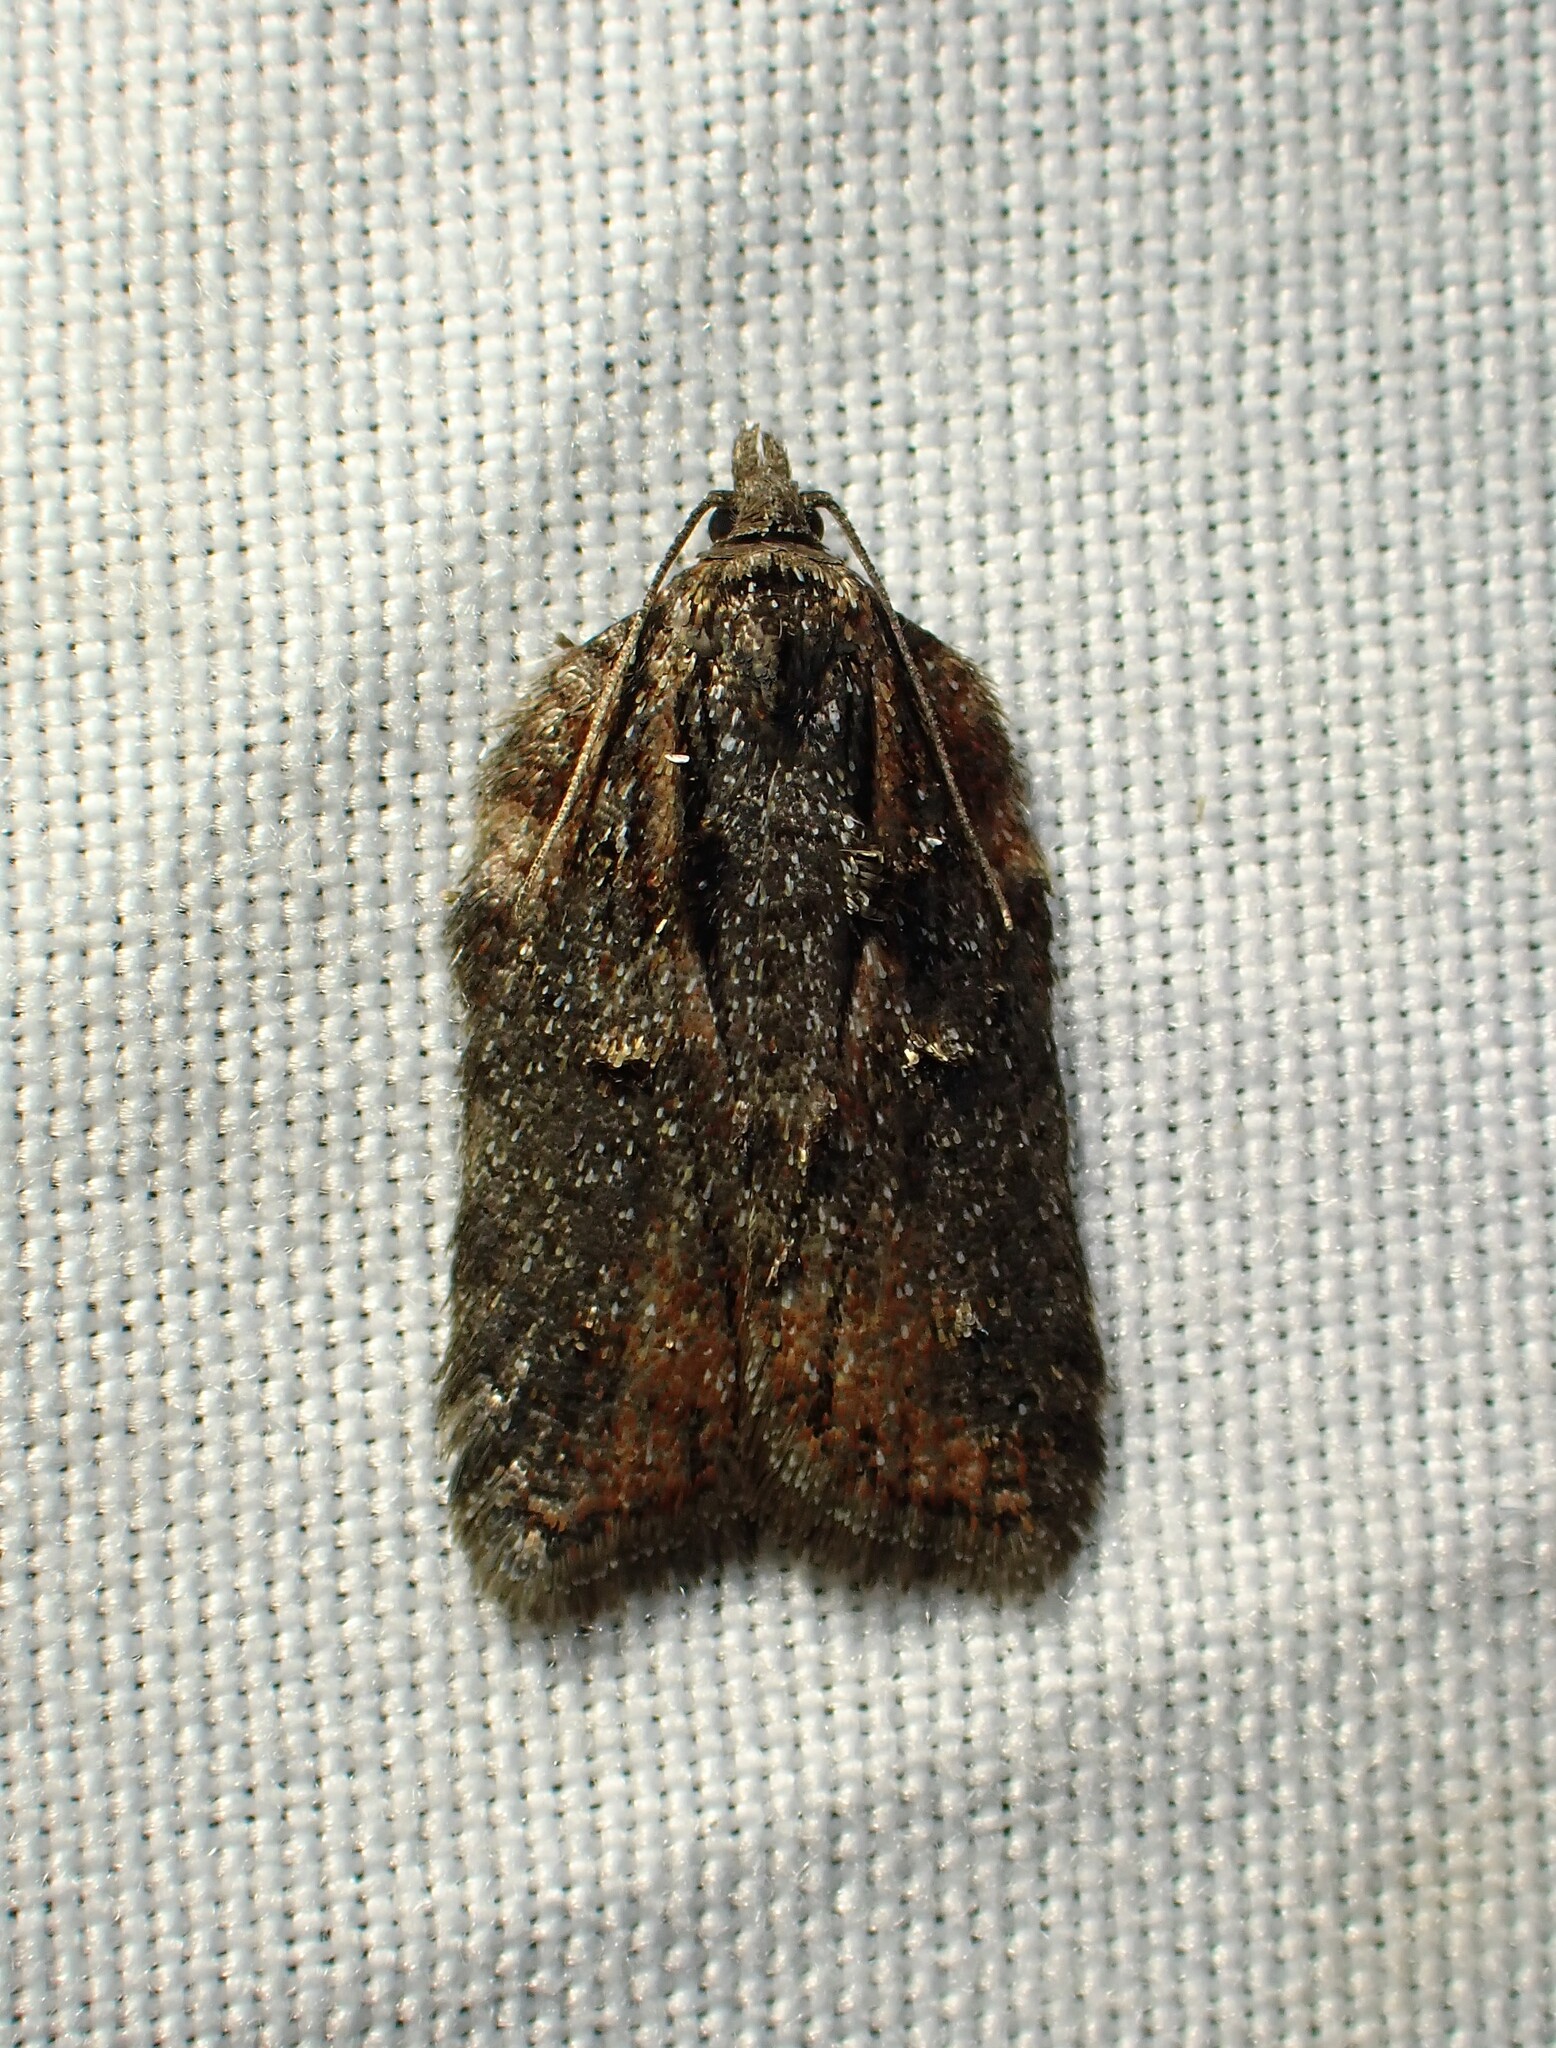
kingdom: Animalia
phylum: Arthropoda
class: Insecta
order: Lepidoptera
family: Tortricidae
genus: Acleris
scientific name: Acleris flavivittana
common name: Multiform leafroller moth
